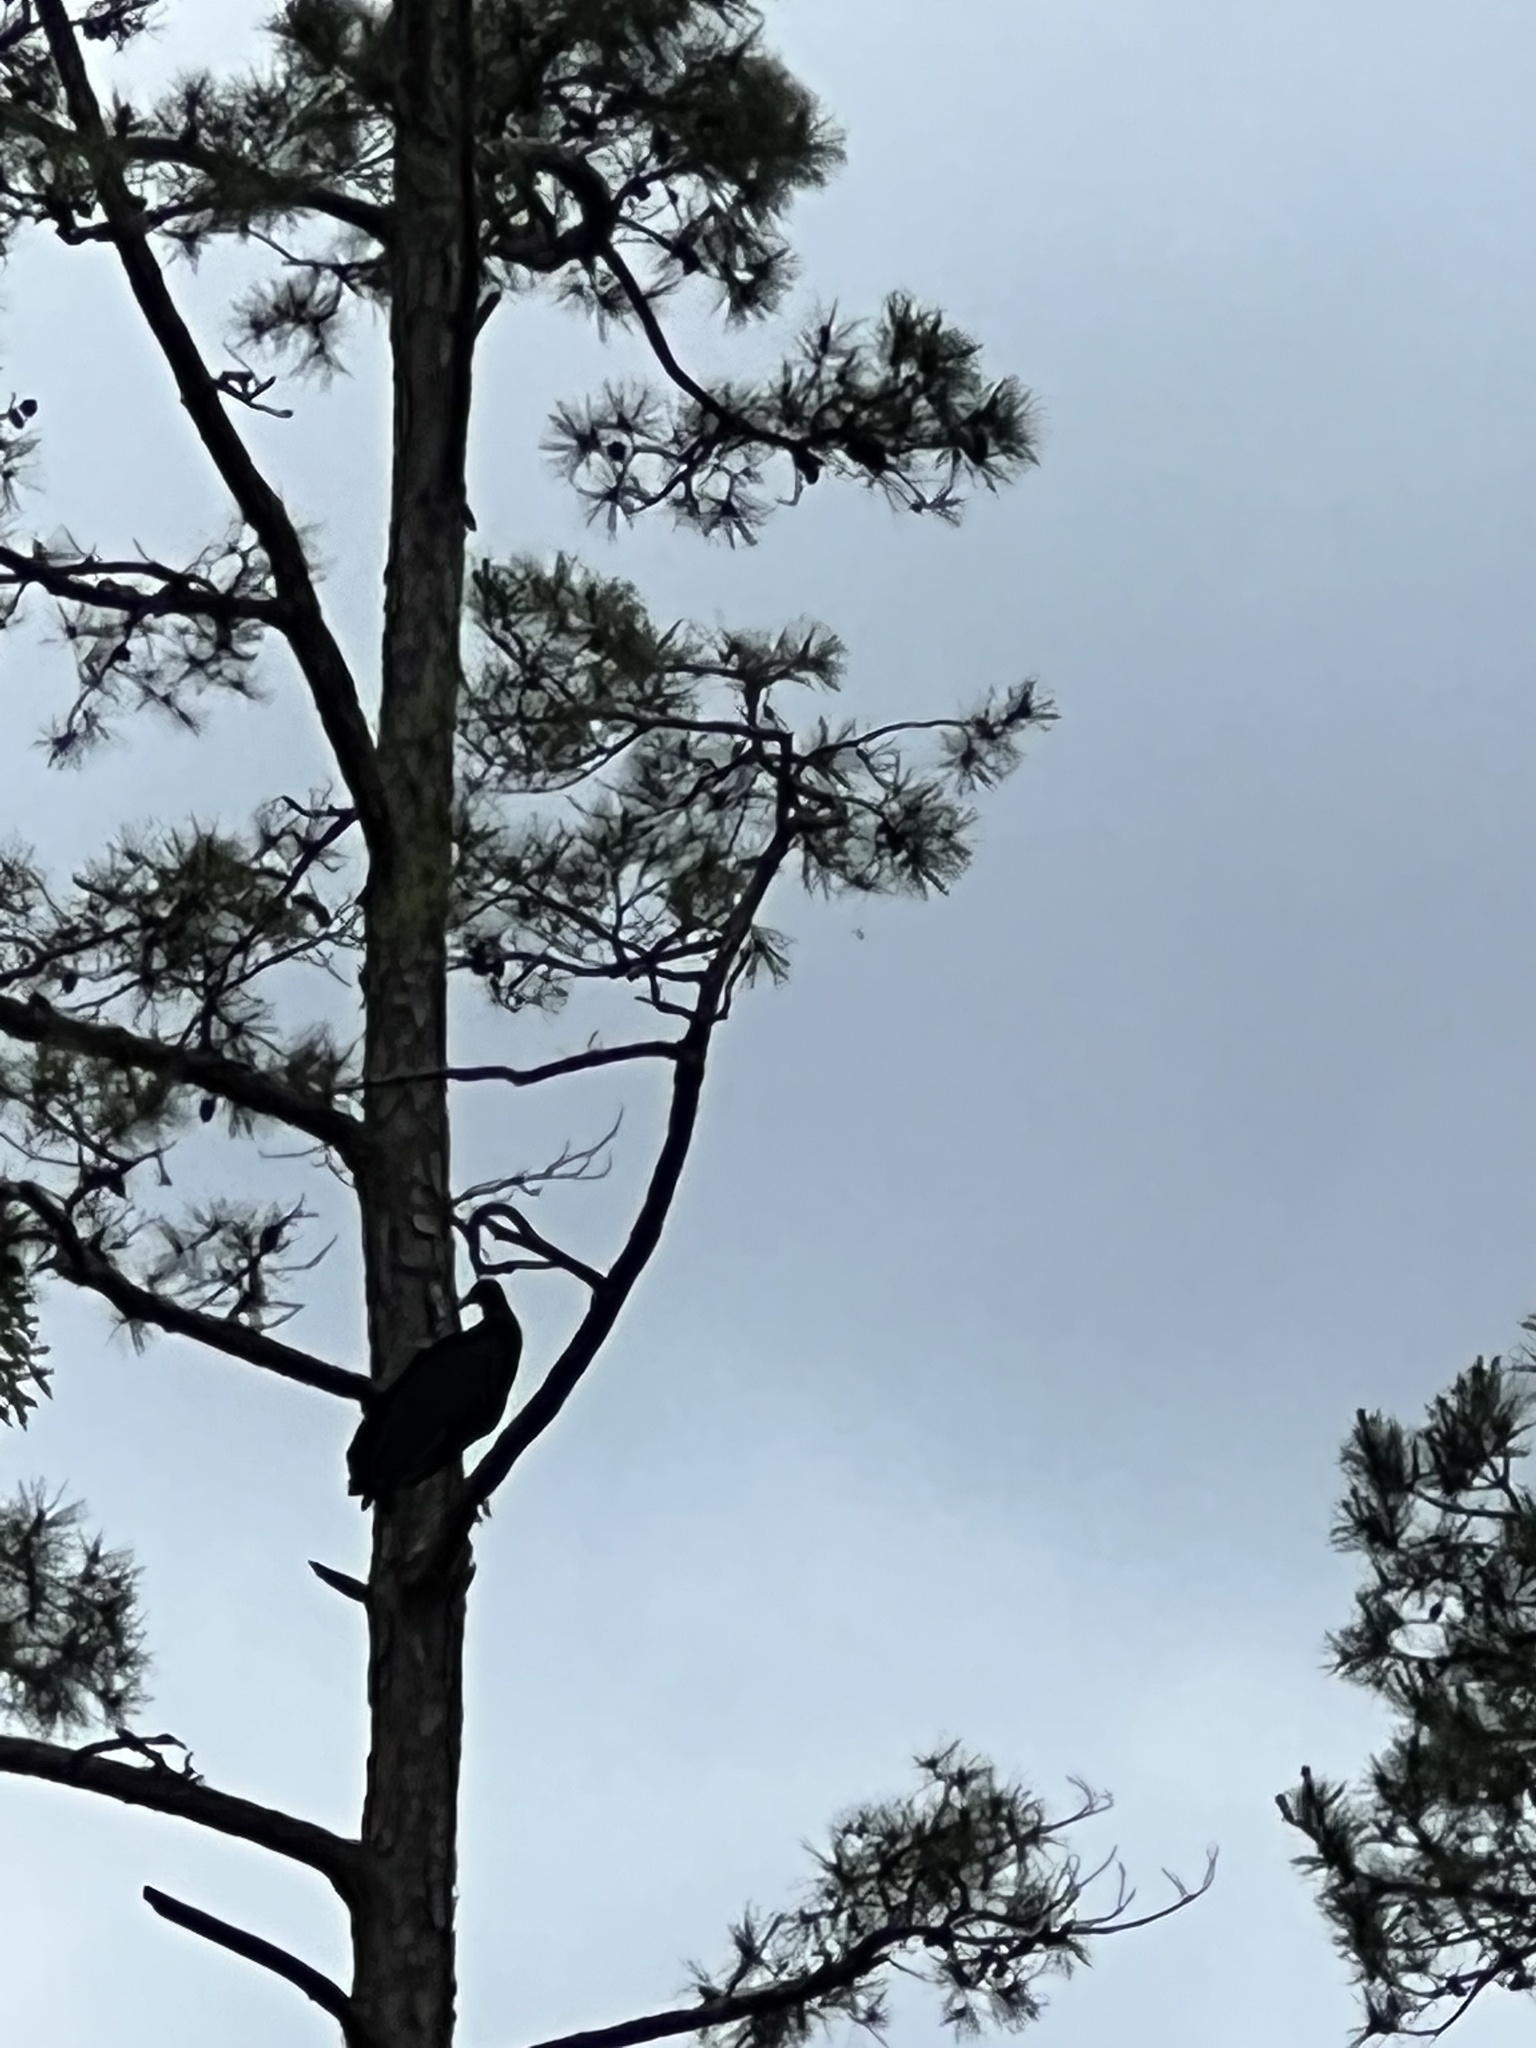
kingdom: Animalia
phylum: Chordata
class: Aves
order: Accipitriformes
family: Cathartidae
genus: Coragyps
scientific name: Coragyps atratus
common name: Black vulture
